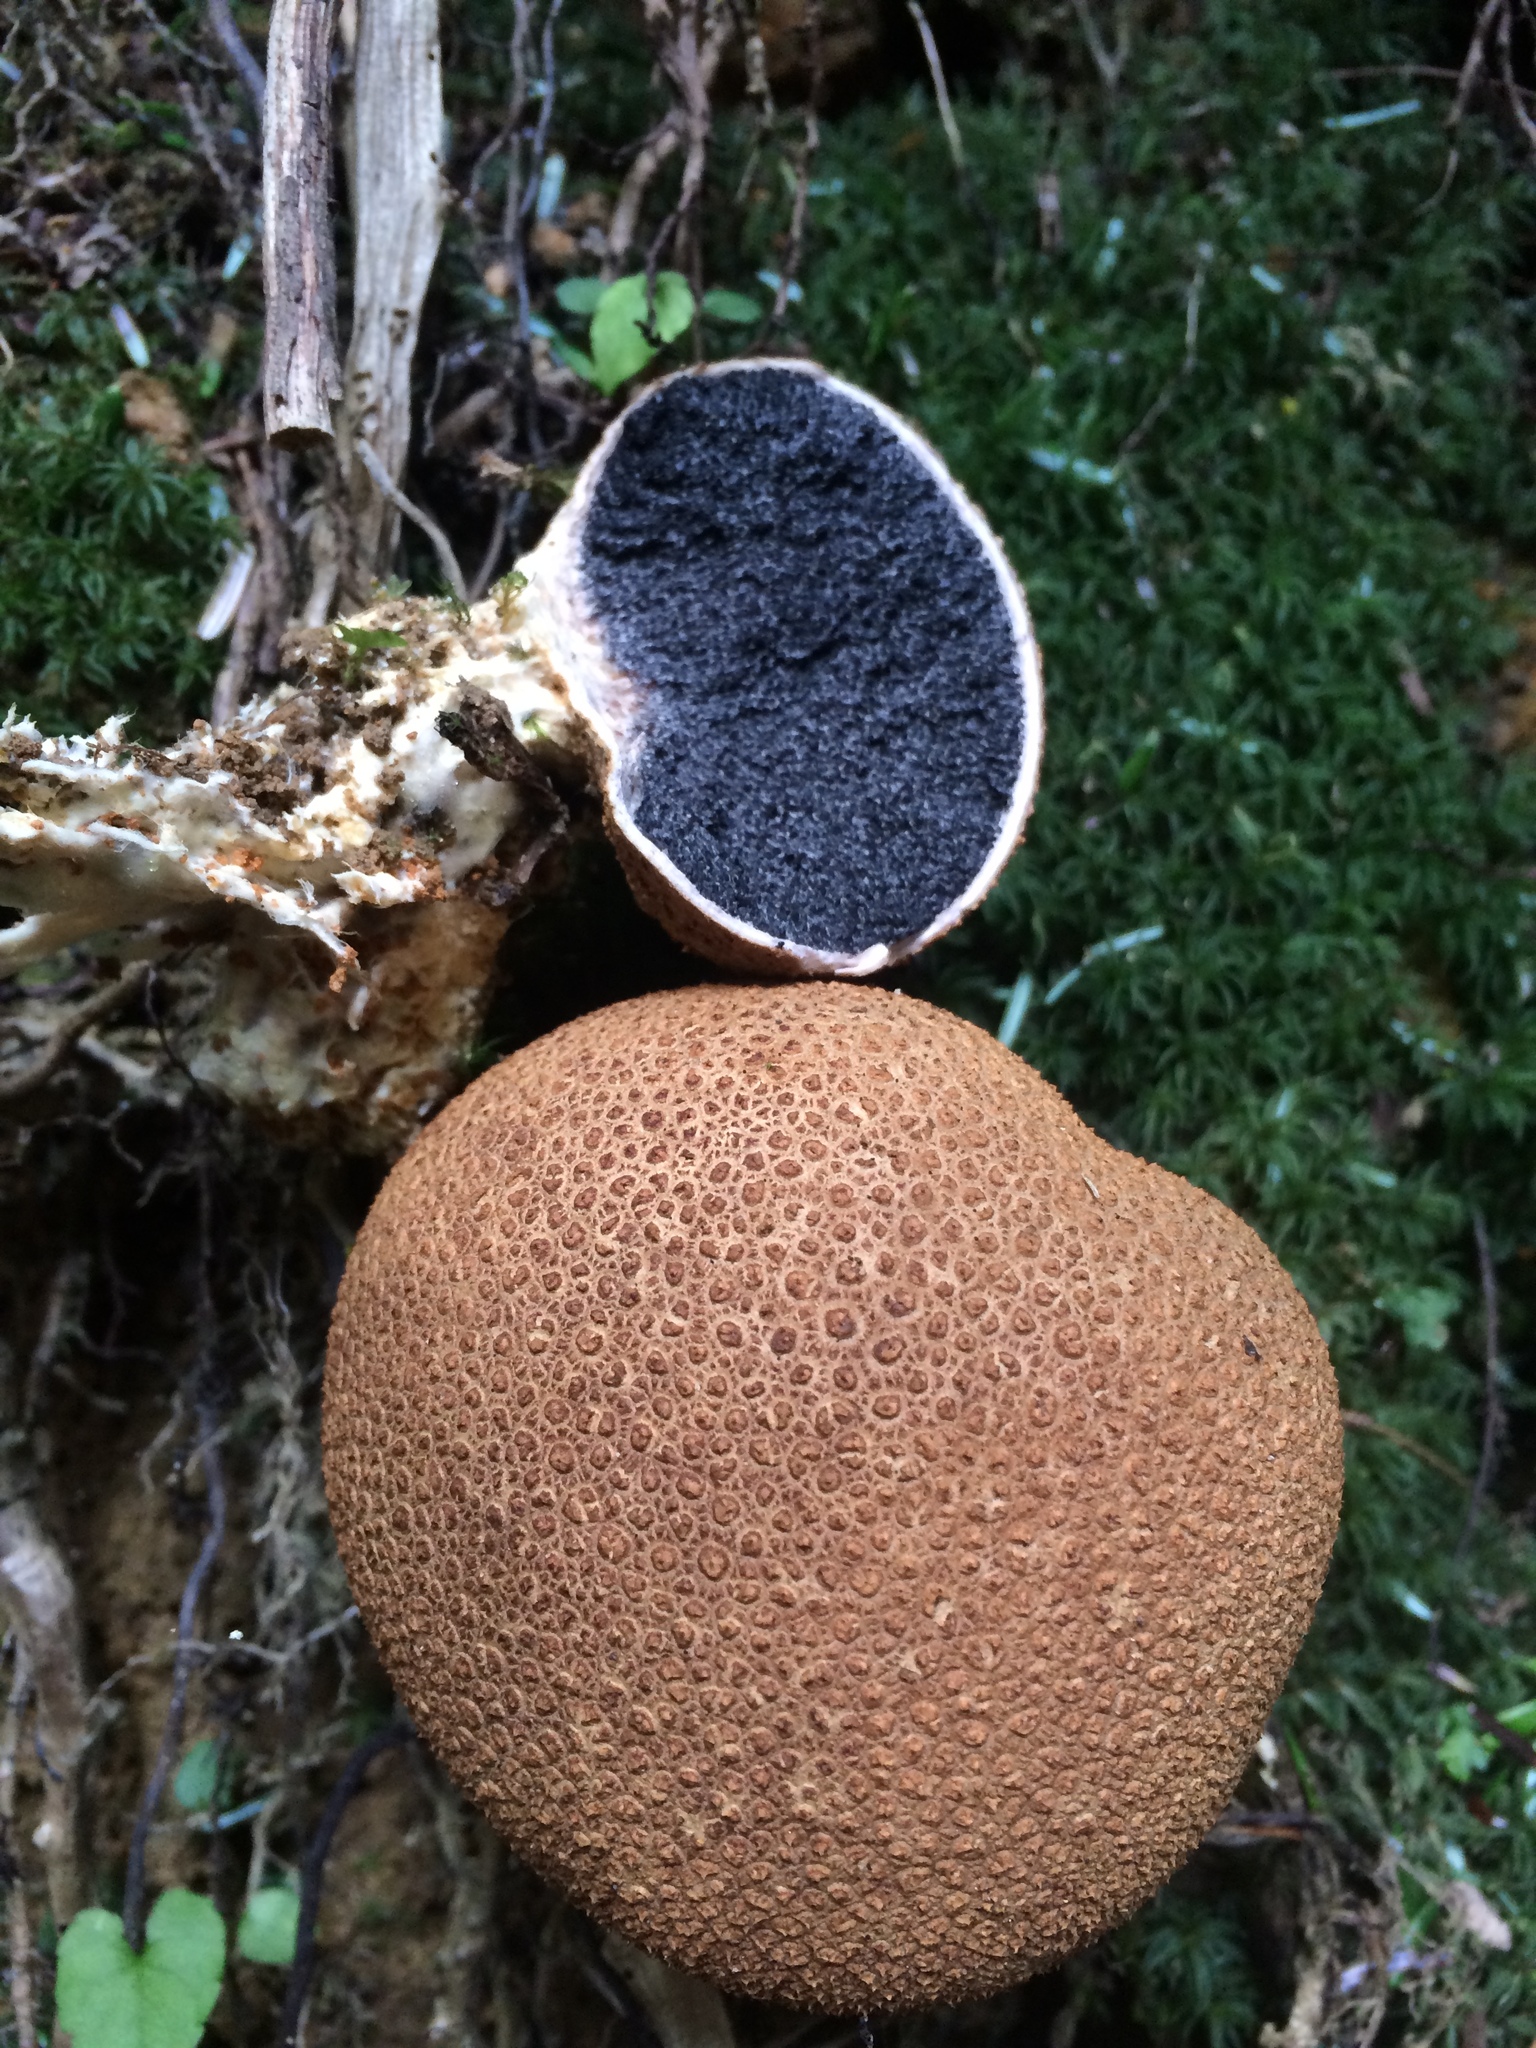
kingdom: Fungi
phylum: Basidiomycota
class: Agaricomycetes
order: Boletales
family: Sclerodermataceae
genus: Scleroderma
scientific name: Scleroderma citrinum
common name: Common earthball
